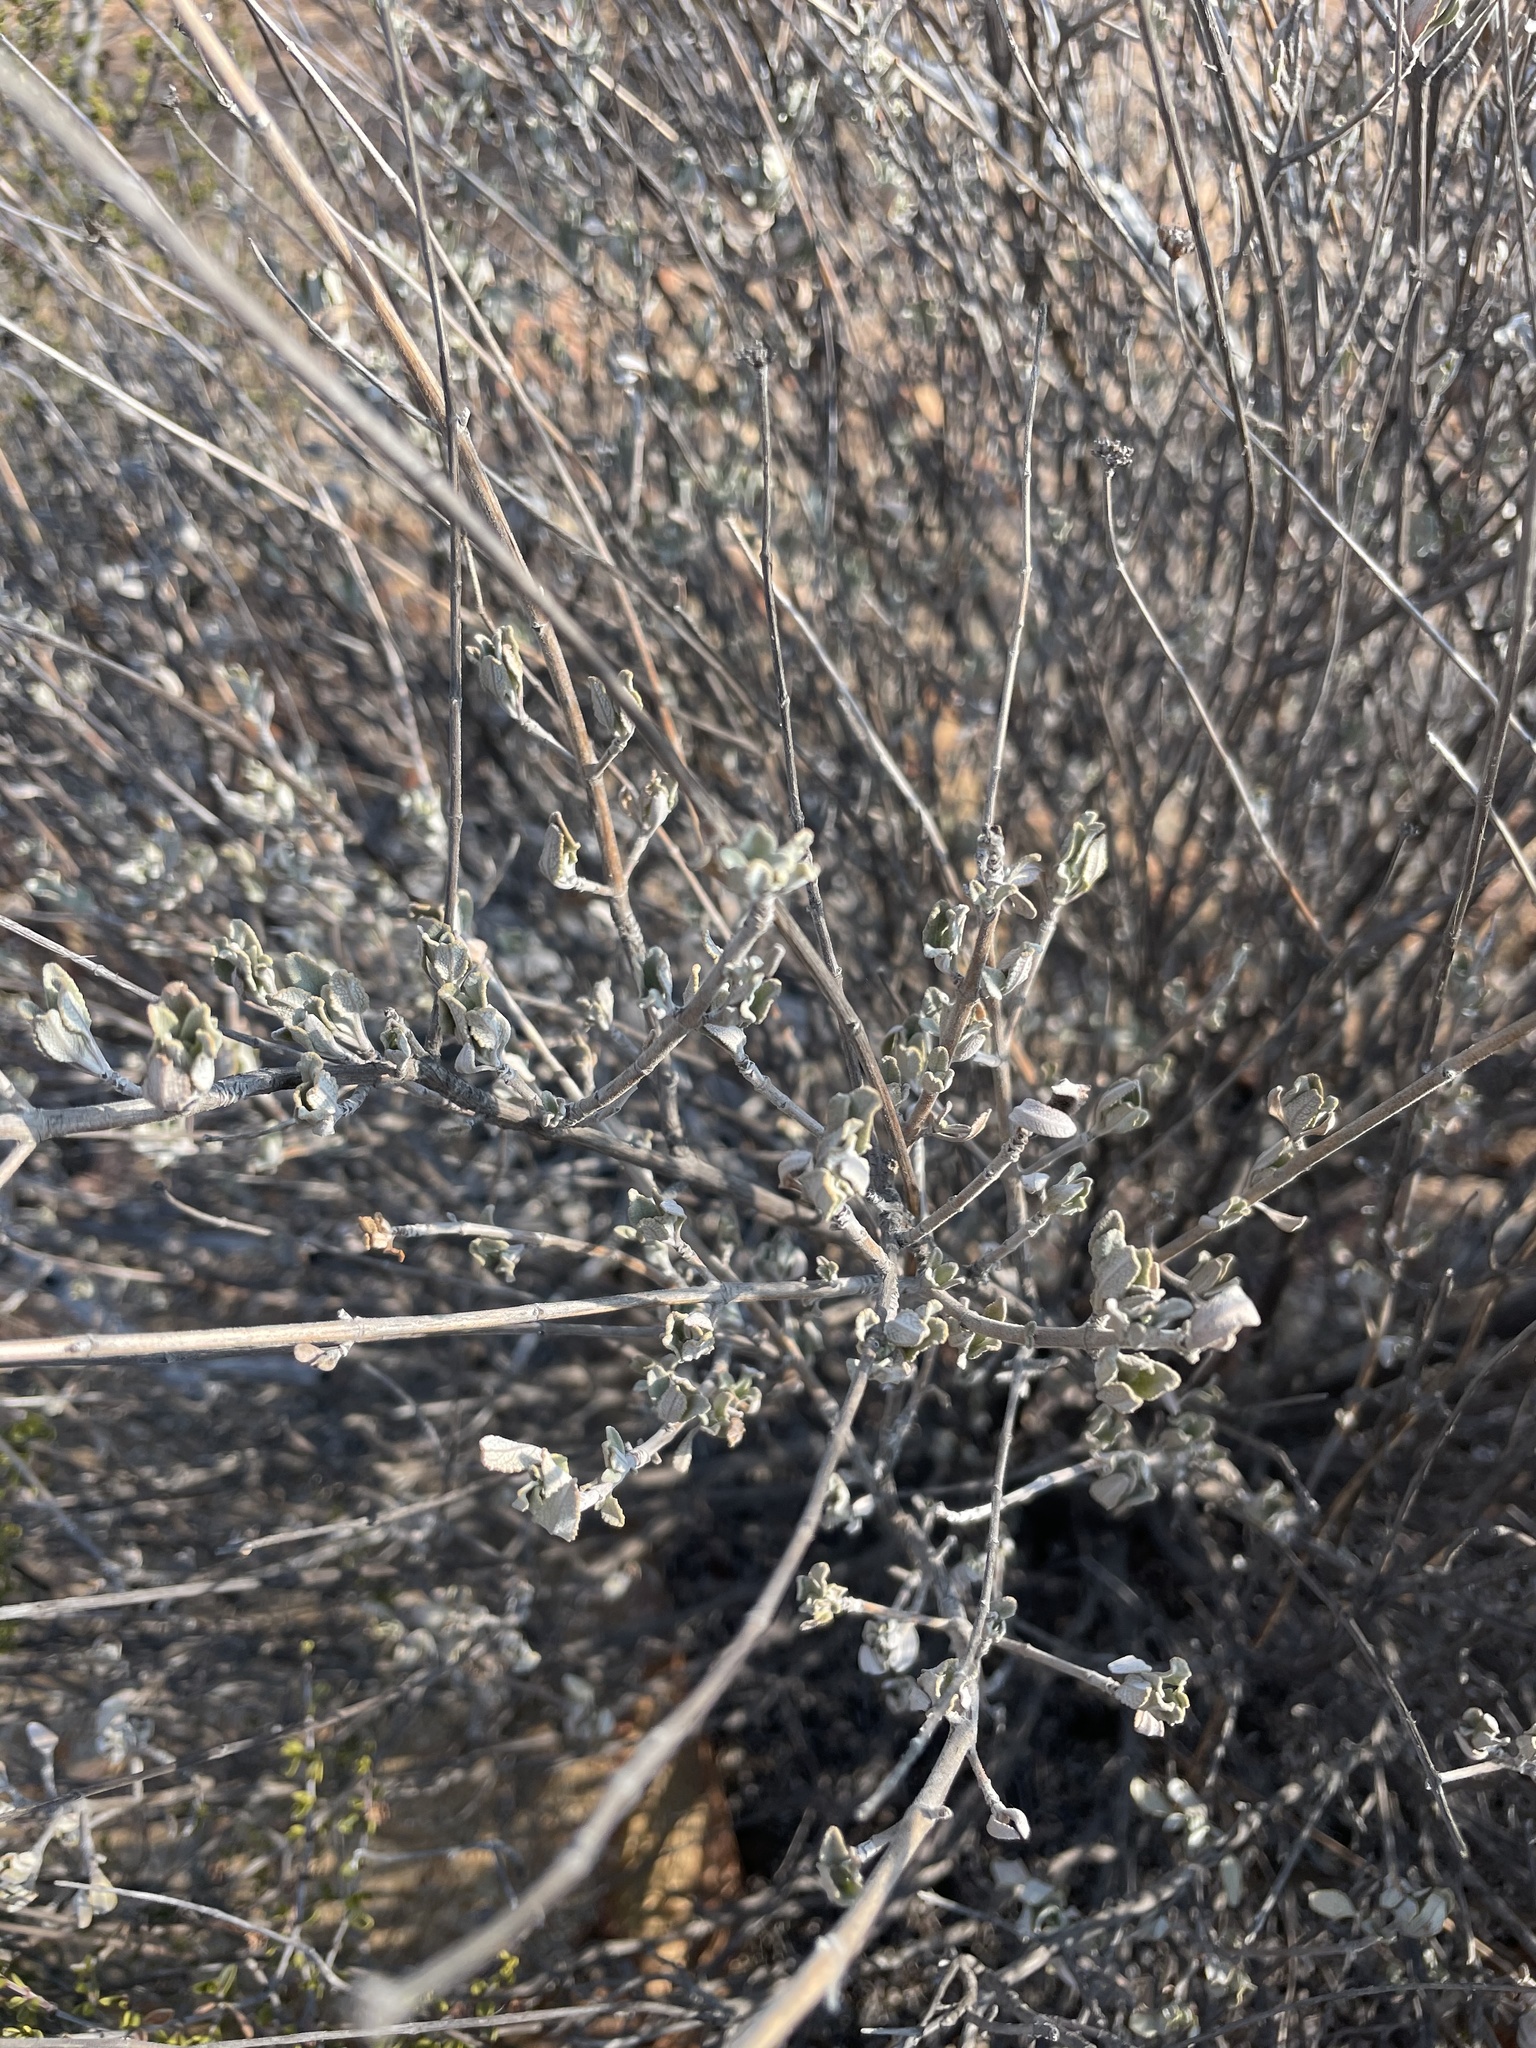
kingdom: Plantae
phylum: Tracheophyta
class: Magnoliopsida
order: Lamiales
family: Lamiaceae
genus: Salvia
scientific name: Salvia clevelandii
